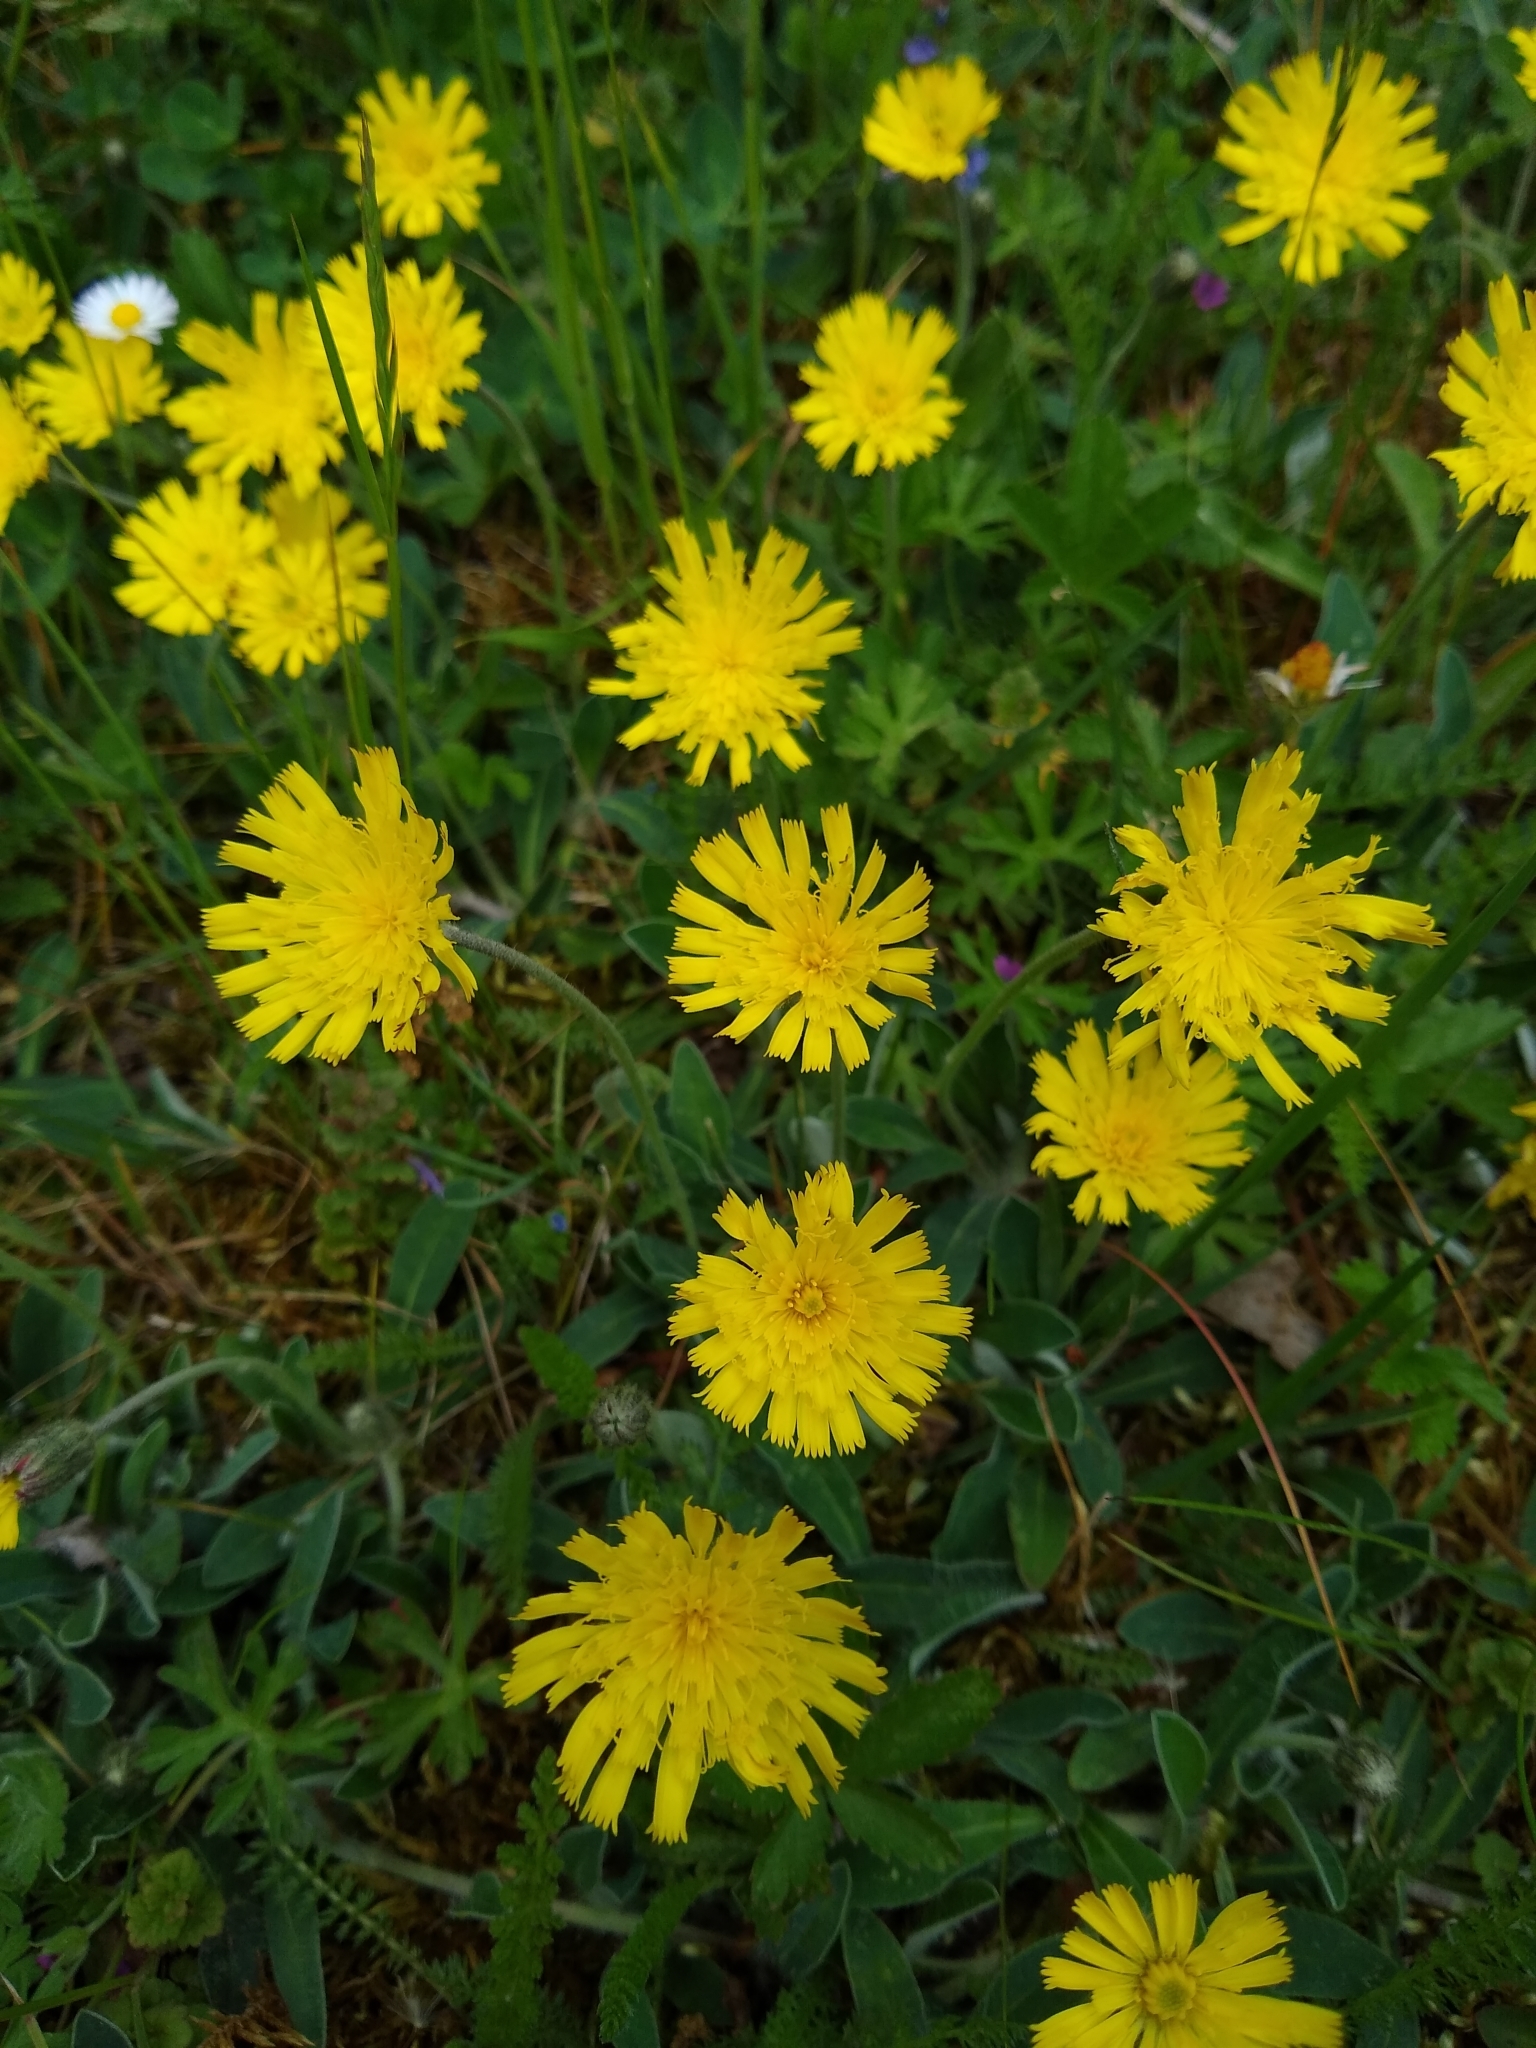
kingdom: Plantae
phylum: Tracheophyta
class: Magnoliopsida
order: Asterales
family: Asteraceae
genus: Pilosella
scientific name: Pilosella officinarum
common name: Mouse-ear hawkweed
